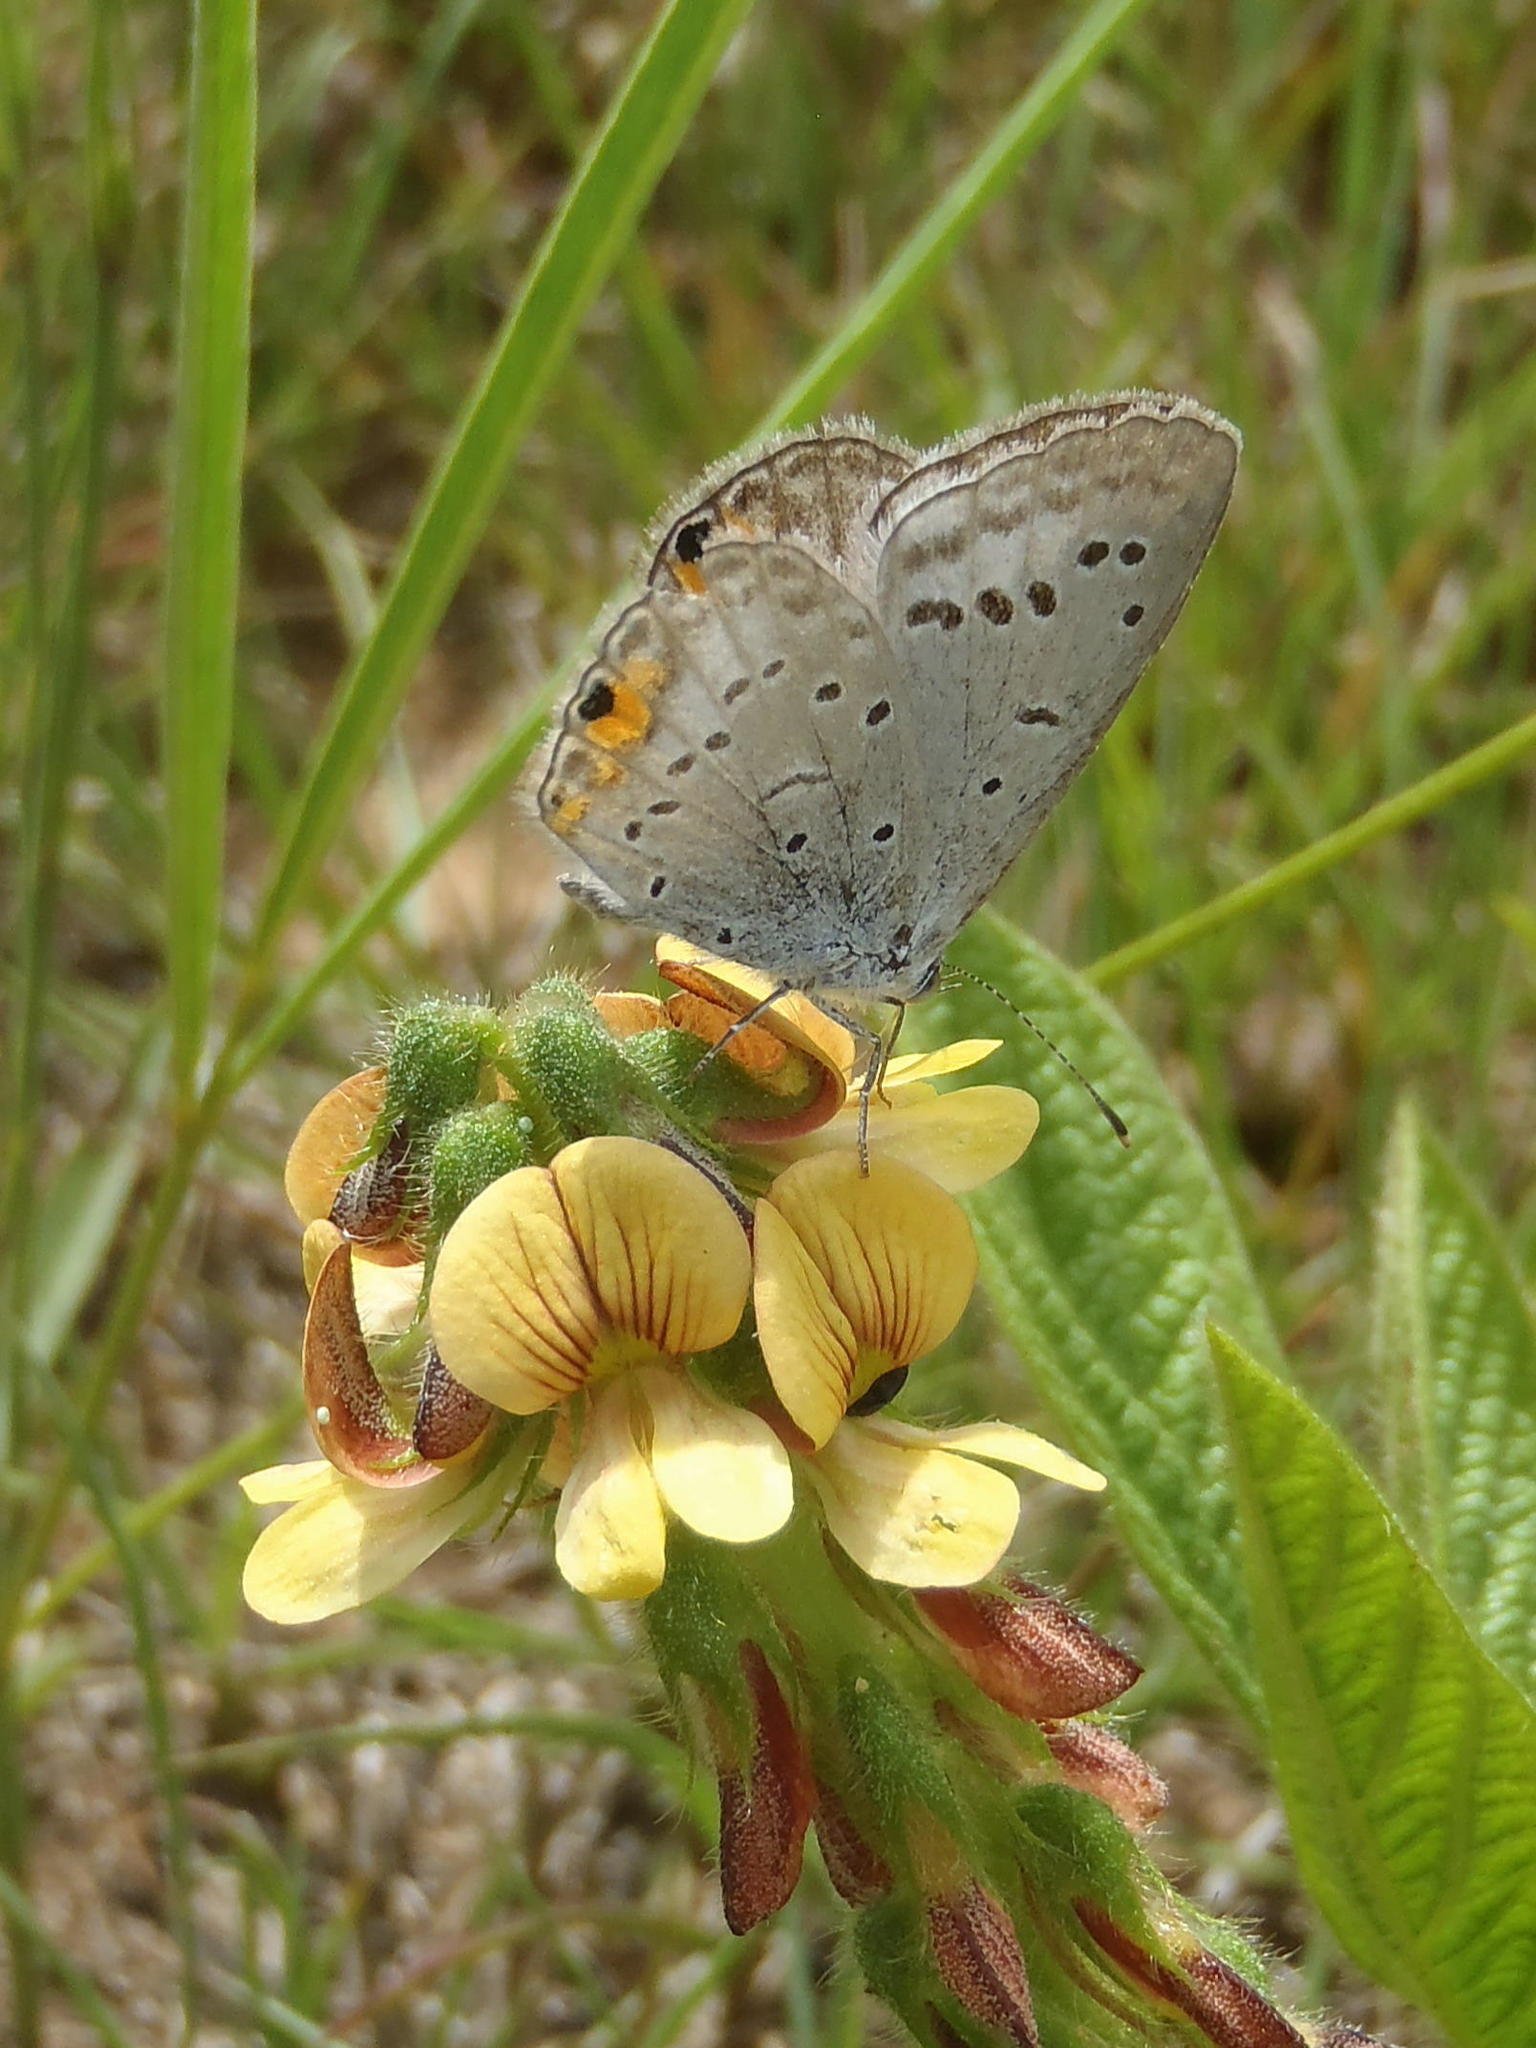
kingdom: Animalia
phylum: Arthropoda
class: Insecta
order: Lepidoptera
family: Lycaenidae
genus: Cupido
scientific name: Cupido cissus
